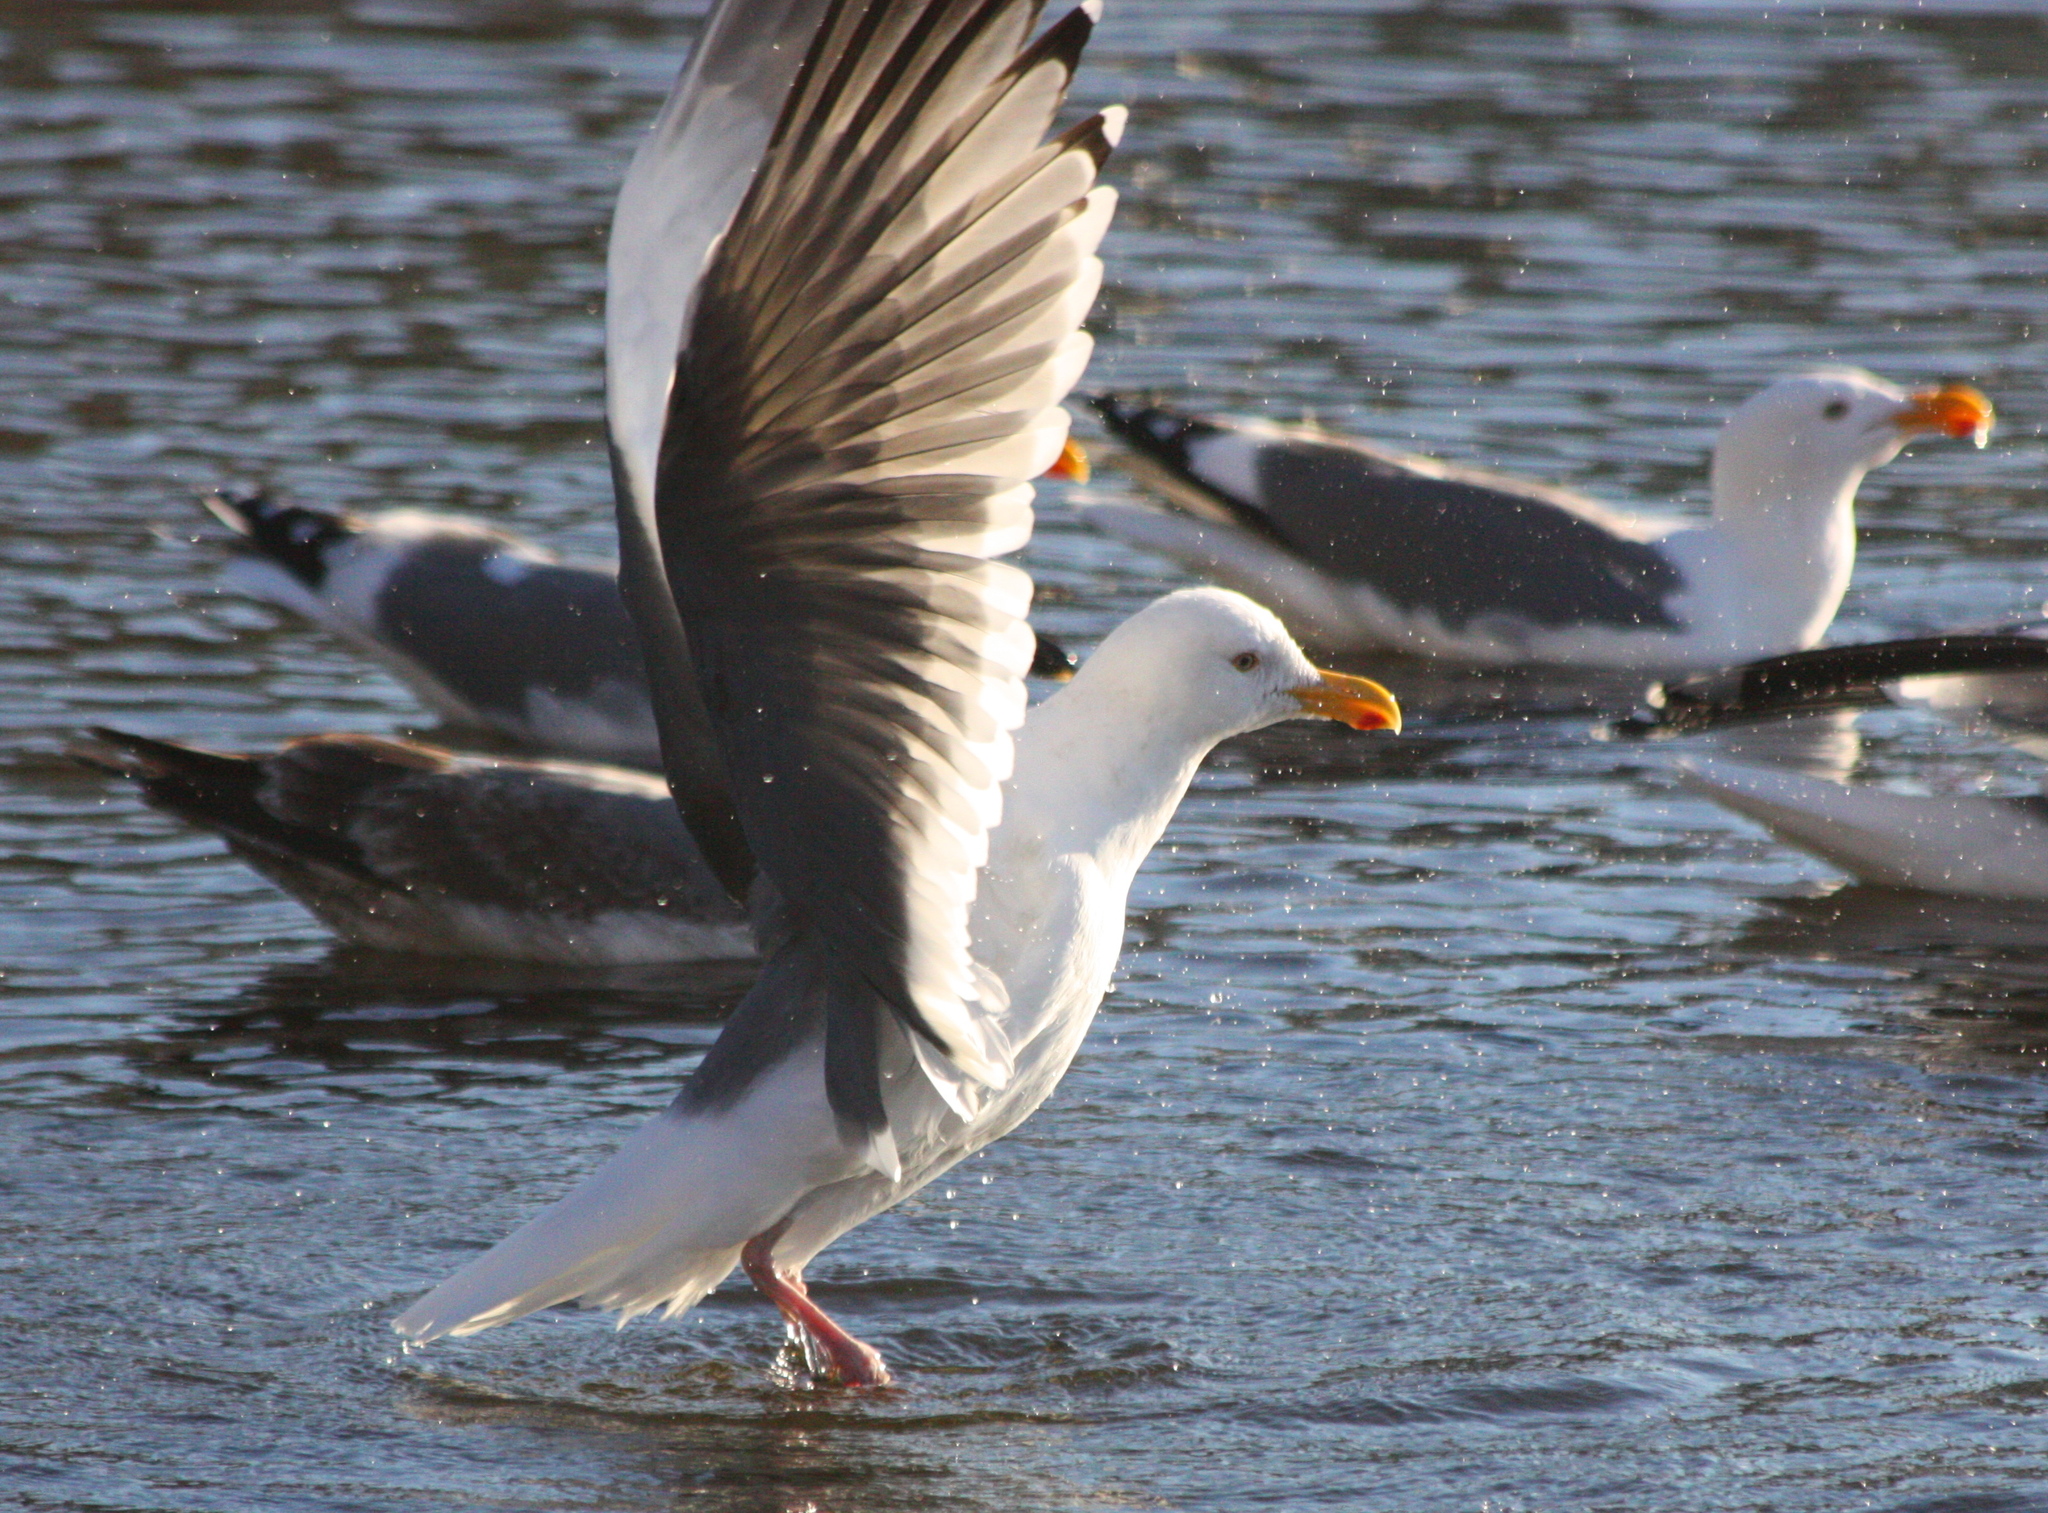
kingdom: Animalia
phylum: Chordata
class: Aves
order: Charadriiformes
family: Laridae
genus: Larus
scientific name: Larus occidentalis
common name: Western gull
